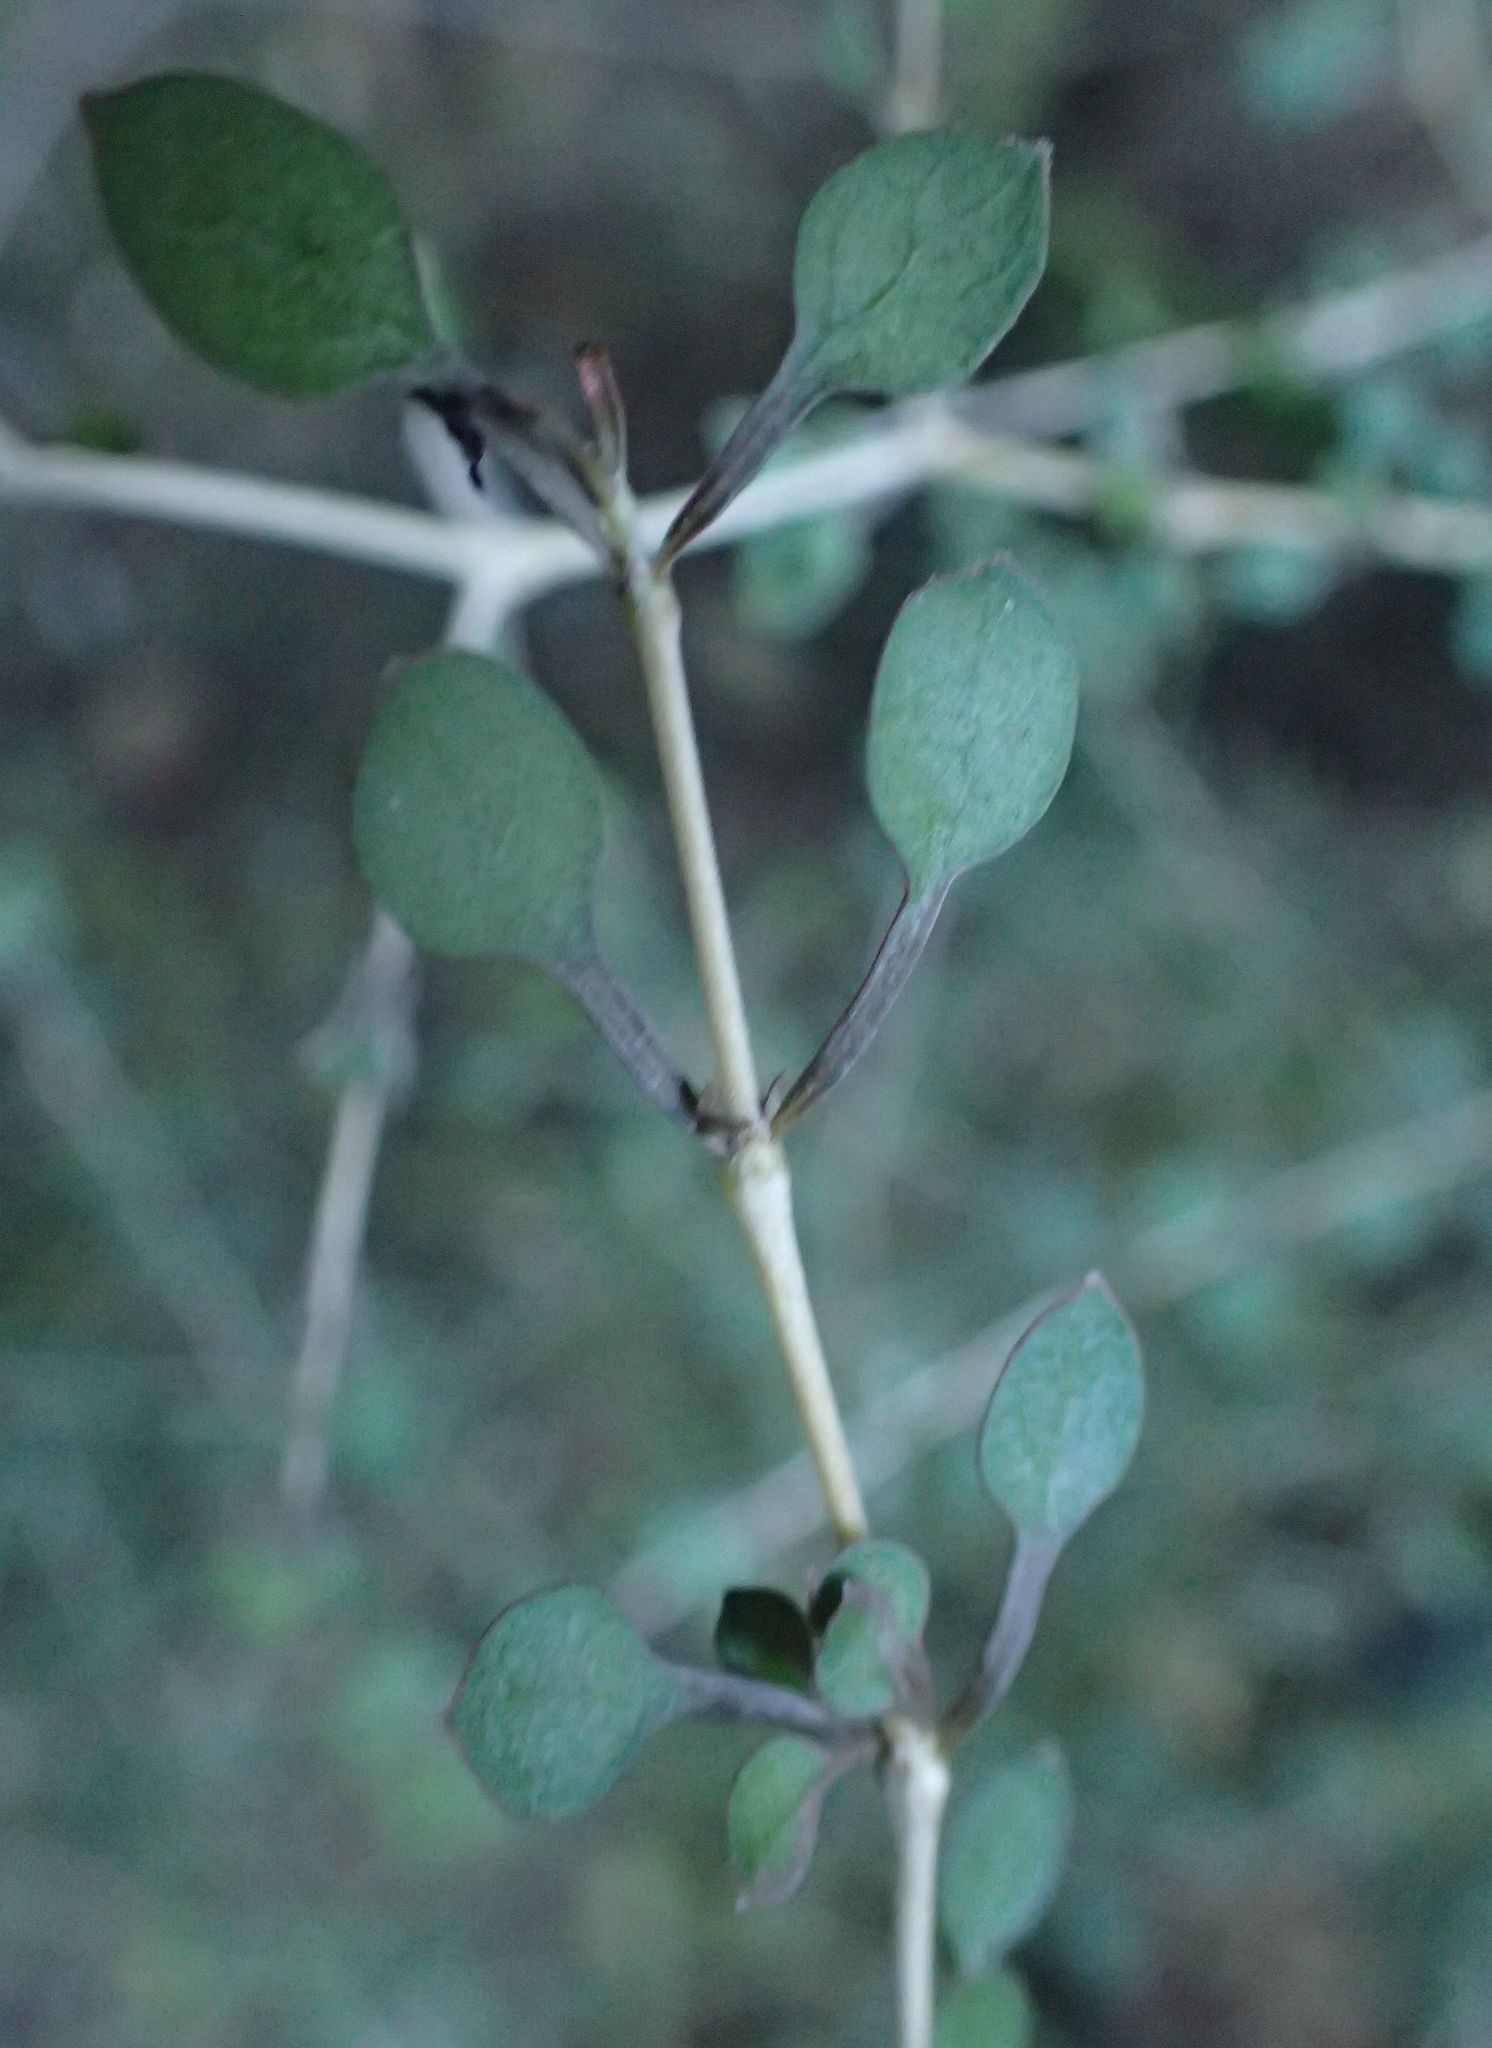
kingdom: Plantae
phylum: Tracheophyta
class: Magnoliopsida
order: Gentianales
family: Rubiaceae
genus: Coprosma
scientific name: Coprosma virescens
